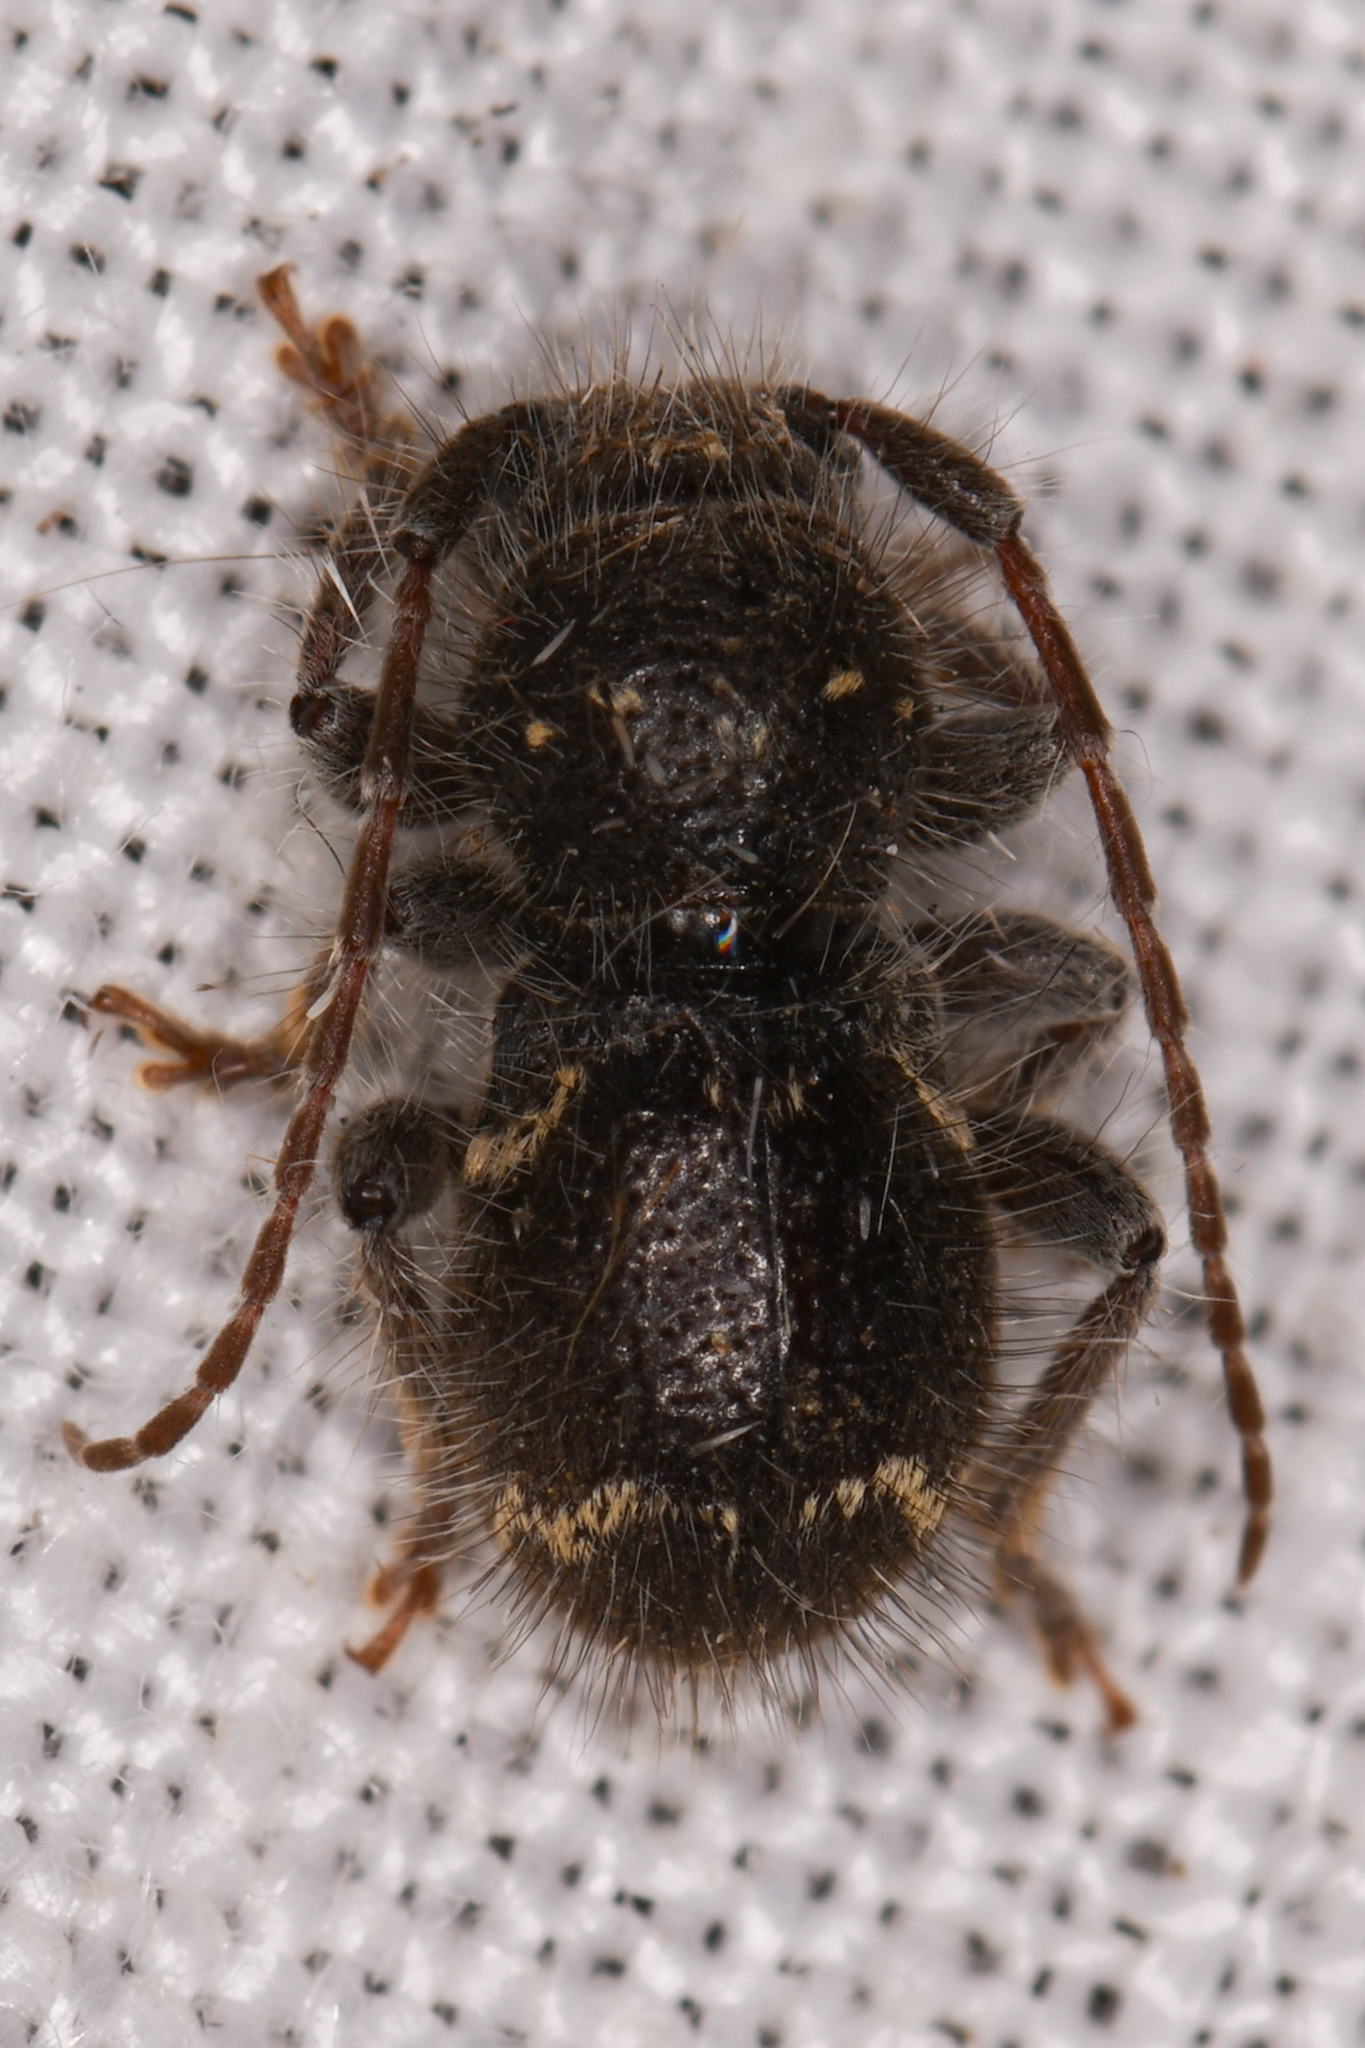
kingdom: Animalia
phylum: Arthropoda
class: Insecta
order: Coleoptera
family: Cerambycidae
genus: Ipochus
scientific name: Ipochus fasciatus
